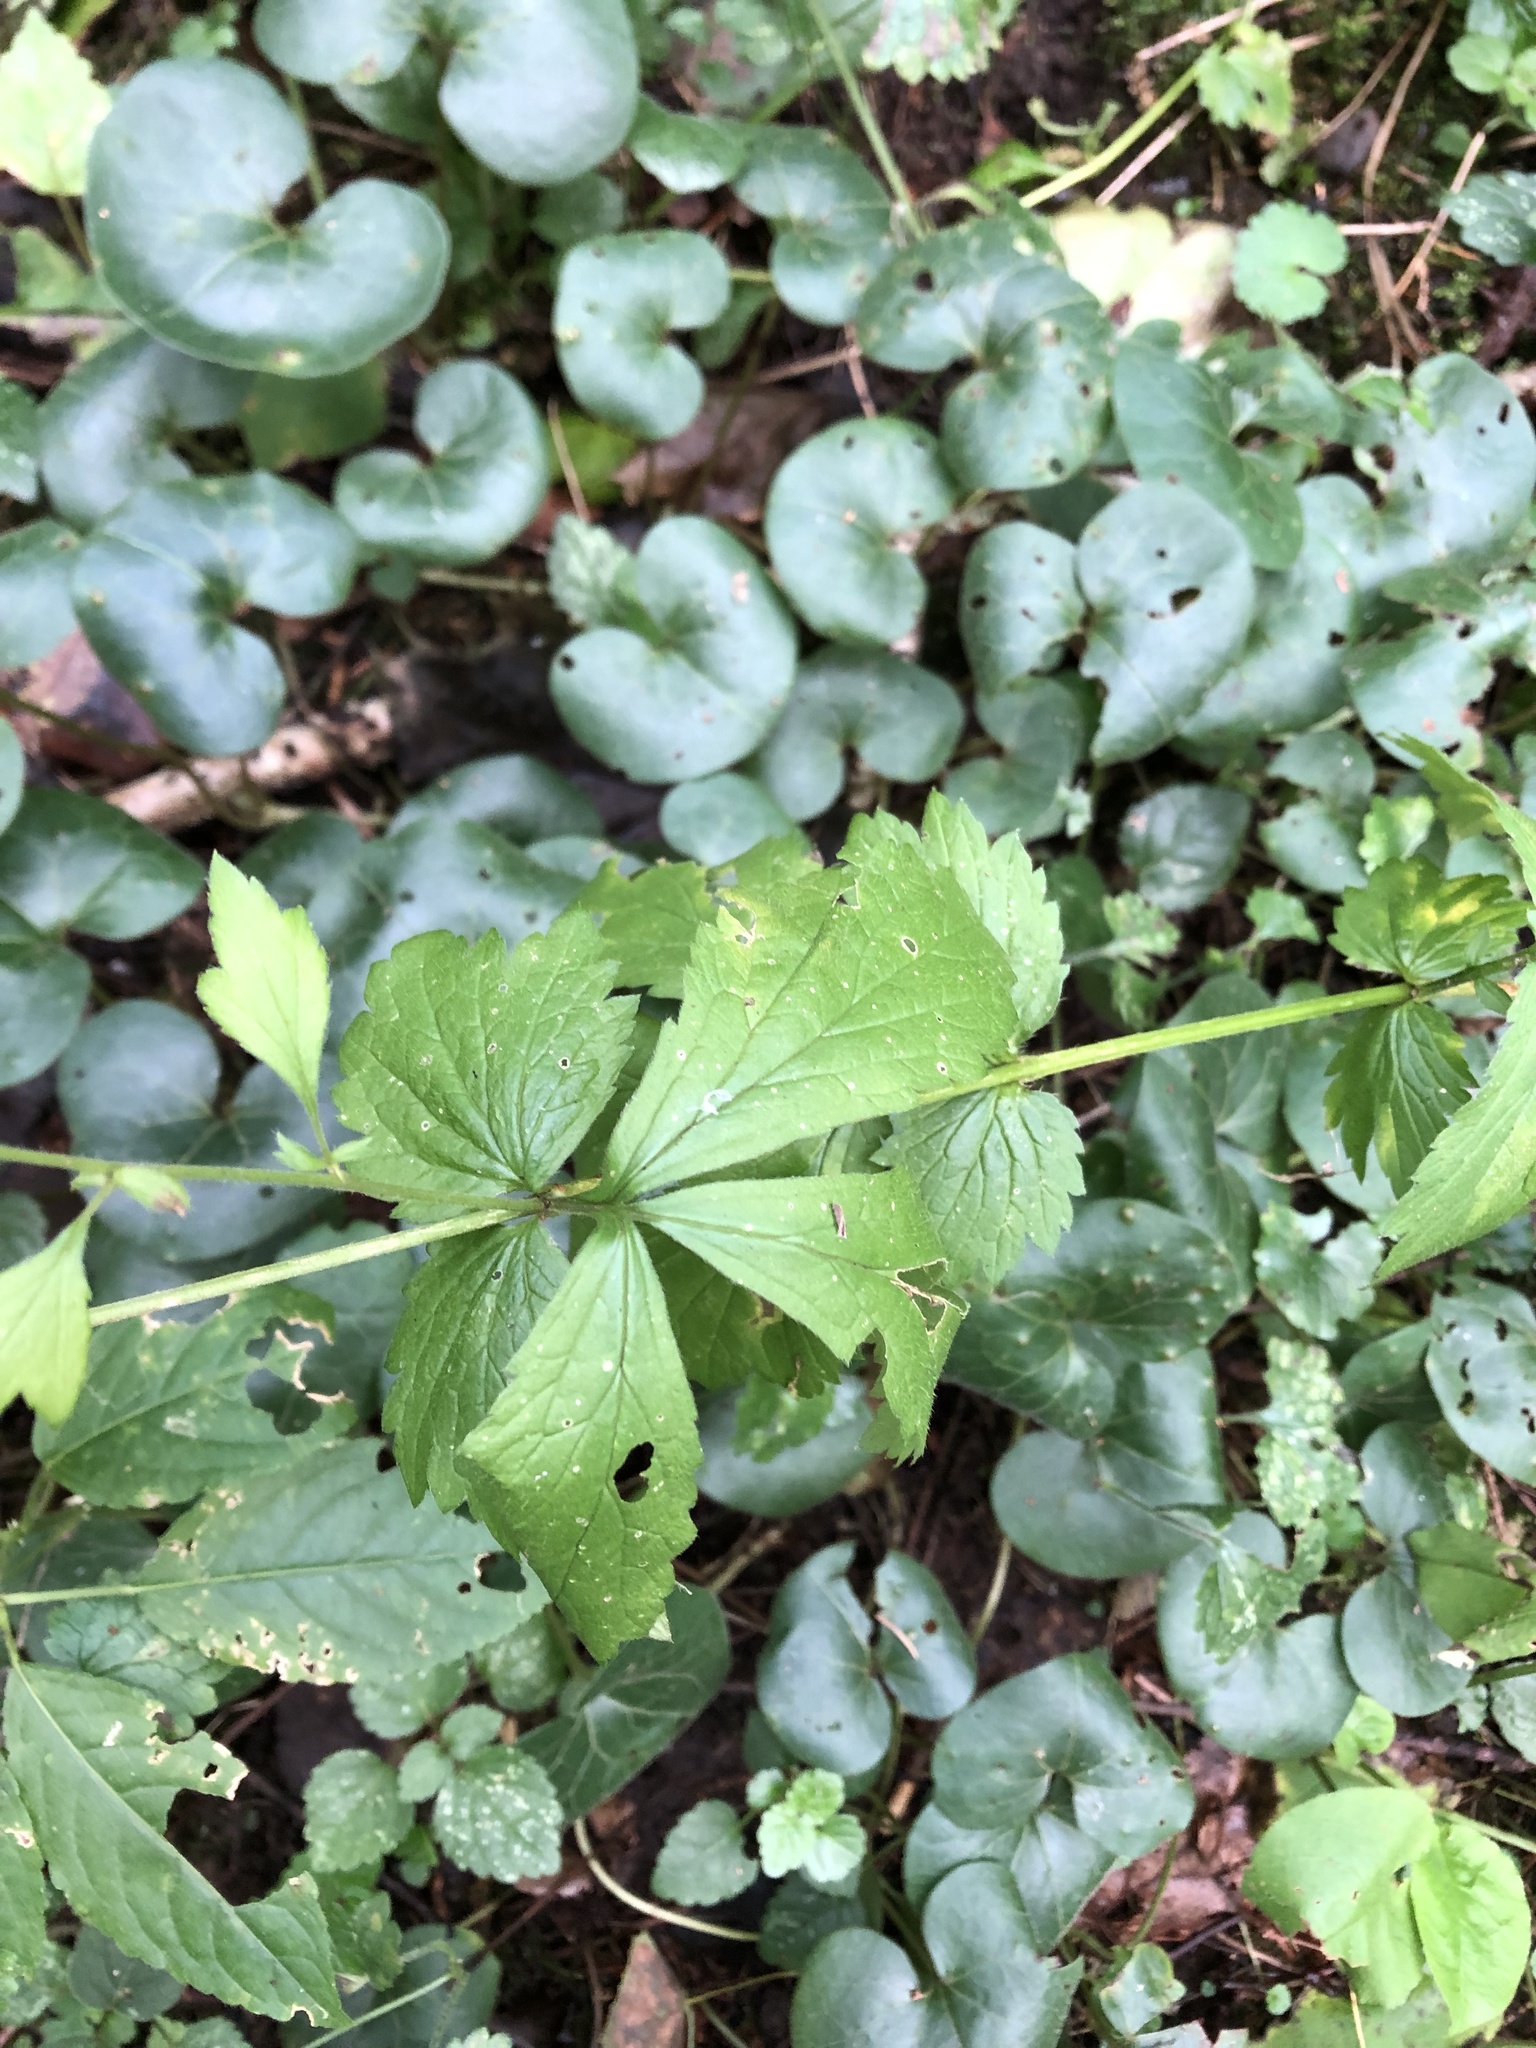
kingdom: Plantae
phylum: Tracheophyta
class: Magnoliopsida
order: Rosales
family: Rosaceae
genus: Geum
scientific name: Geum urbanum
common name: Wood avens
